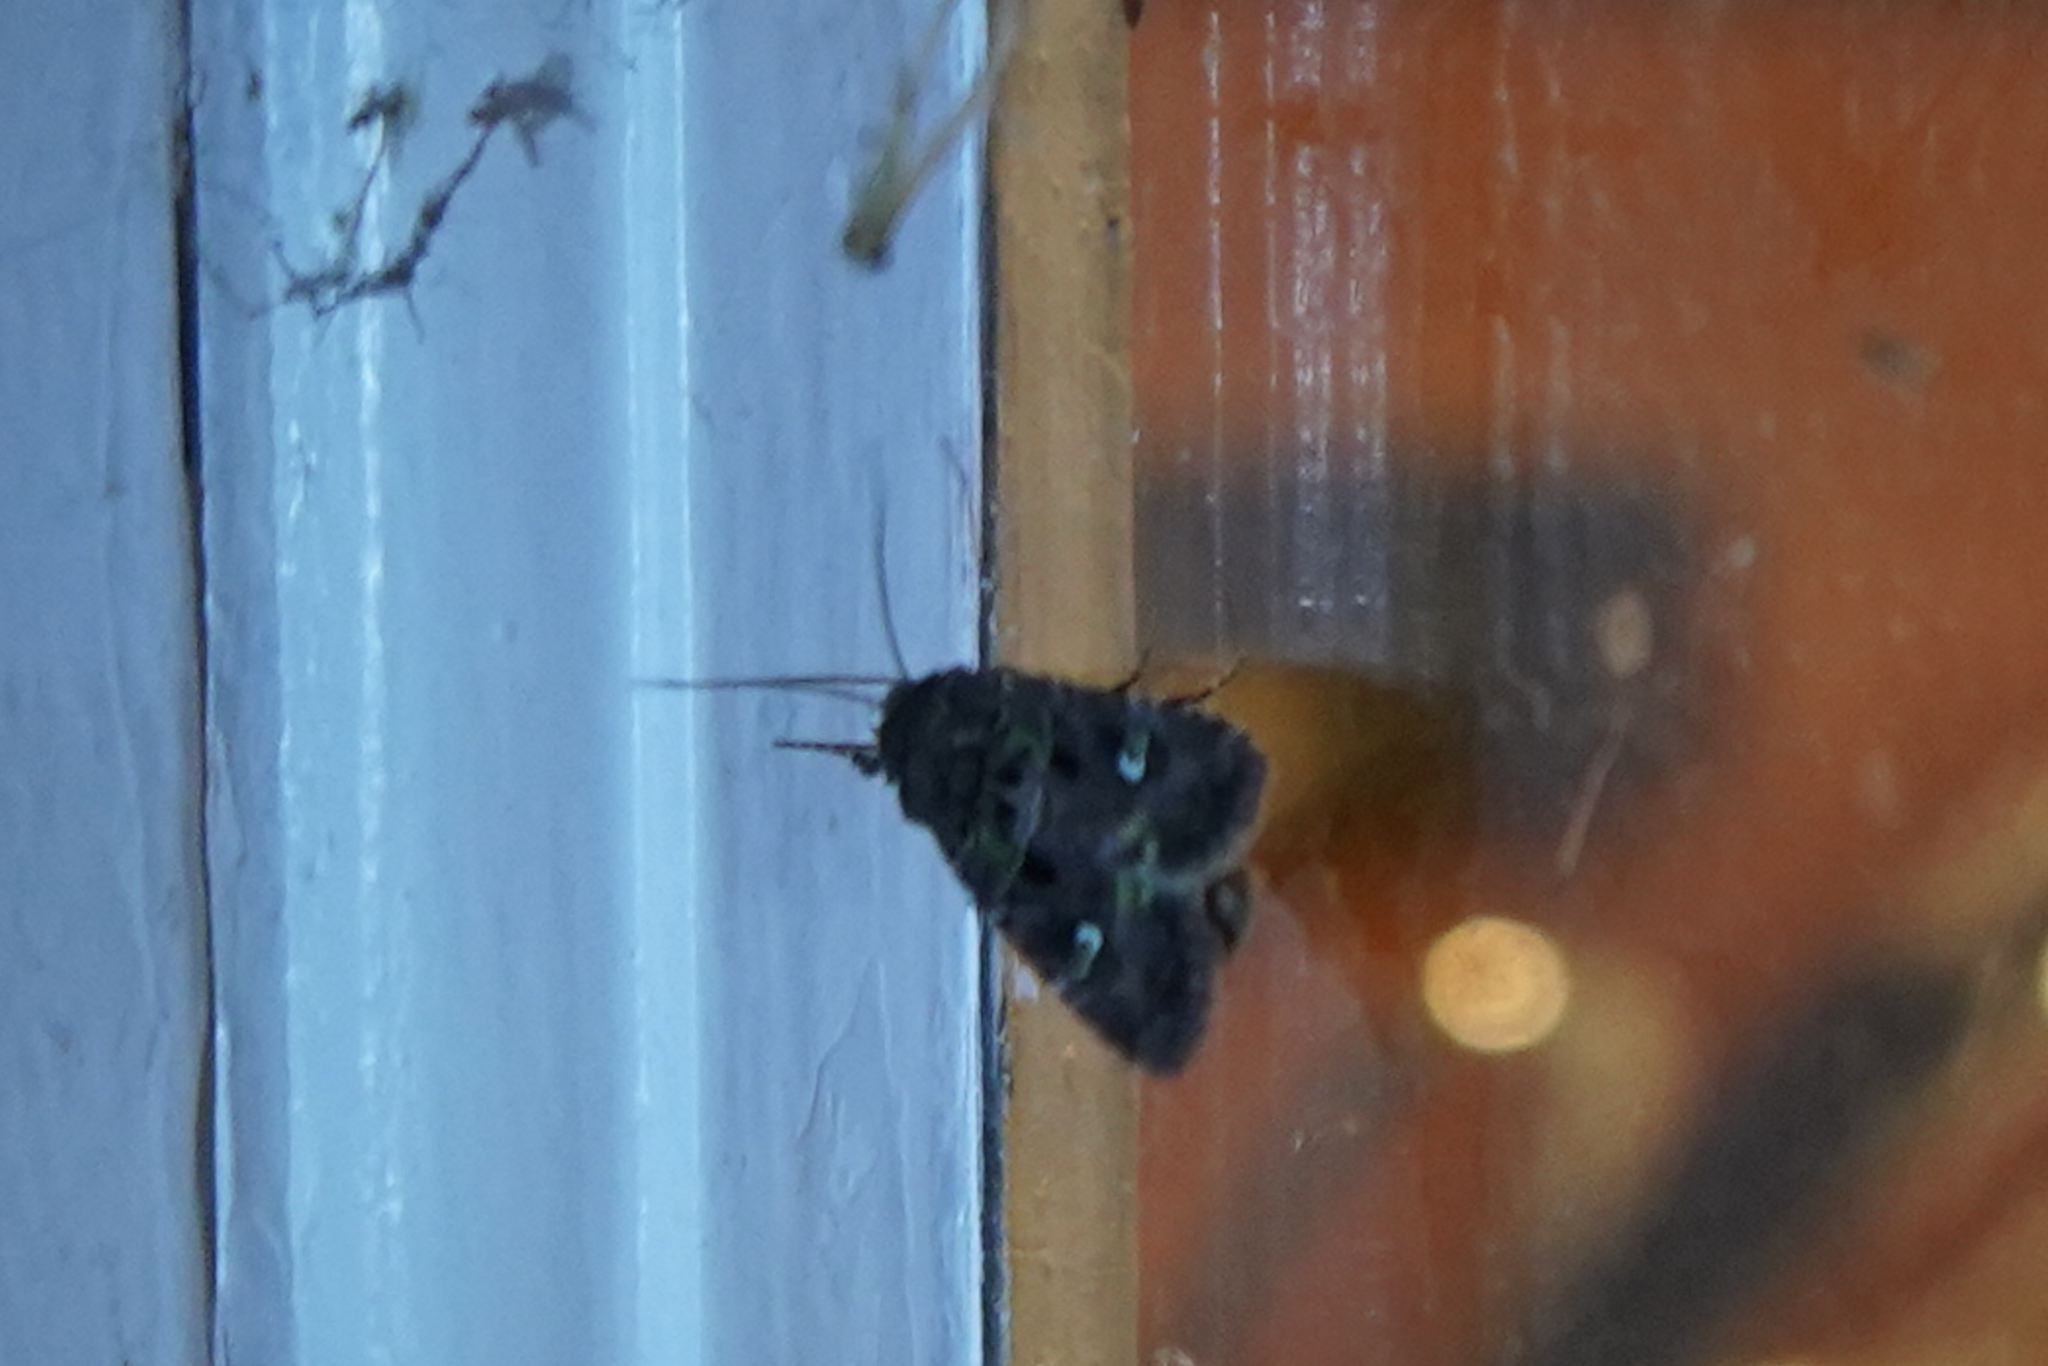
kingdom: Animalia
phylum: Arthropoda
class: Insecta
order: Lepidoptera
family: Noctuidae
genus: Lacinipolia
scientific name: Lacinipolia renigera
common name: Kidney-spotted minor
